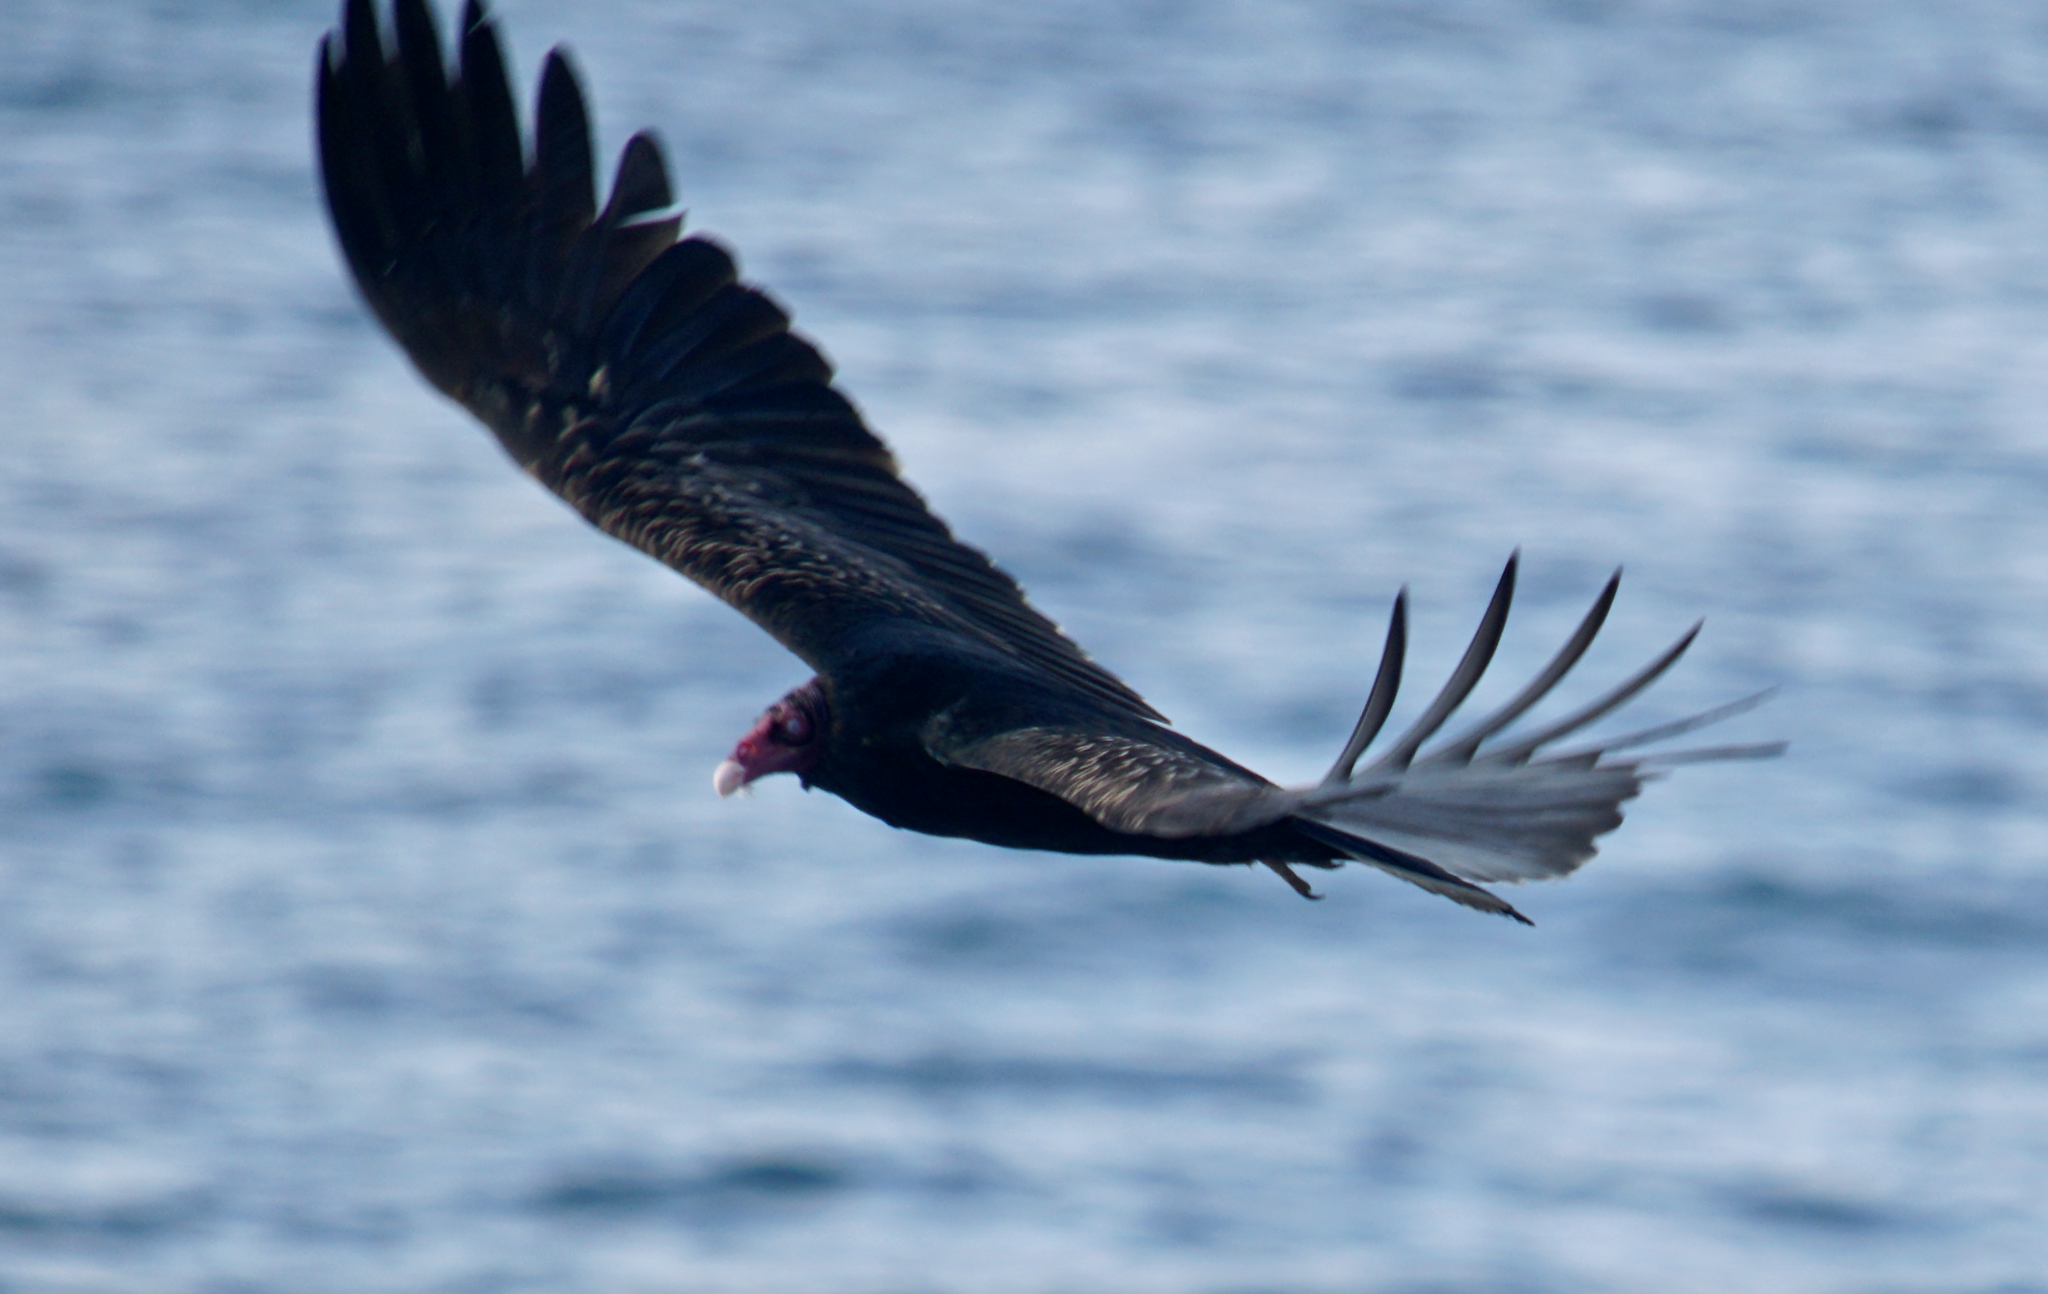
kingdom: Animalia
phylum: Chordata
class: Aves
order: Accipitriformes
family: Cathartidae
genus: Cathartes
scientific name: Cathartes aura
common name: Turkey vulture
